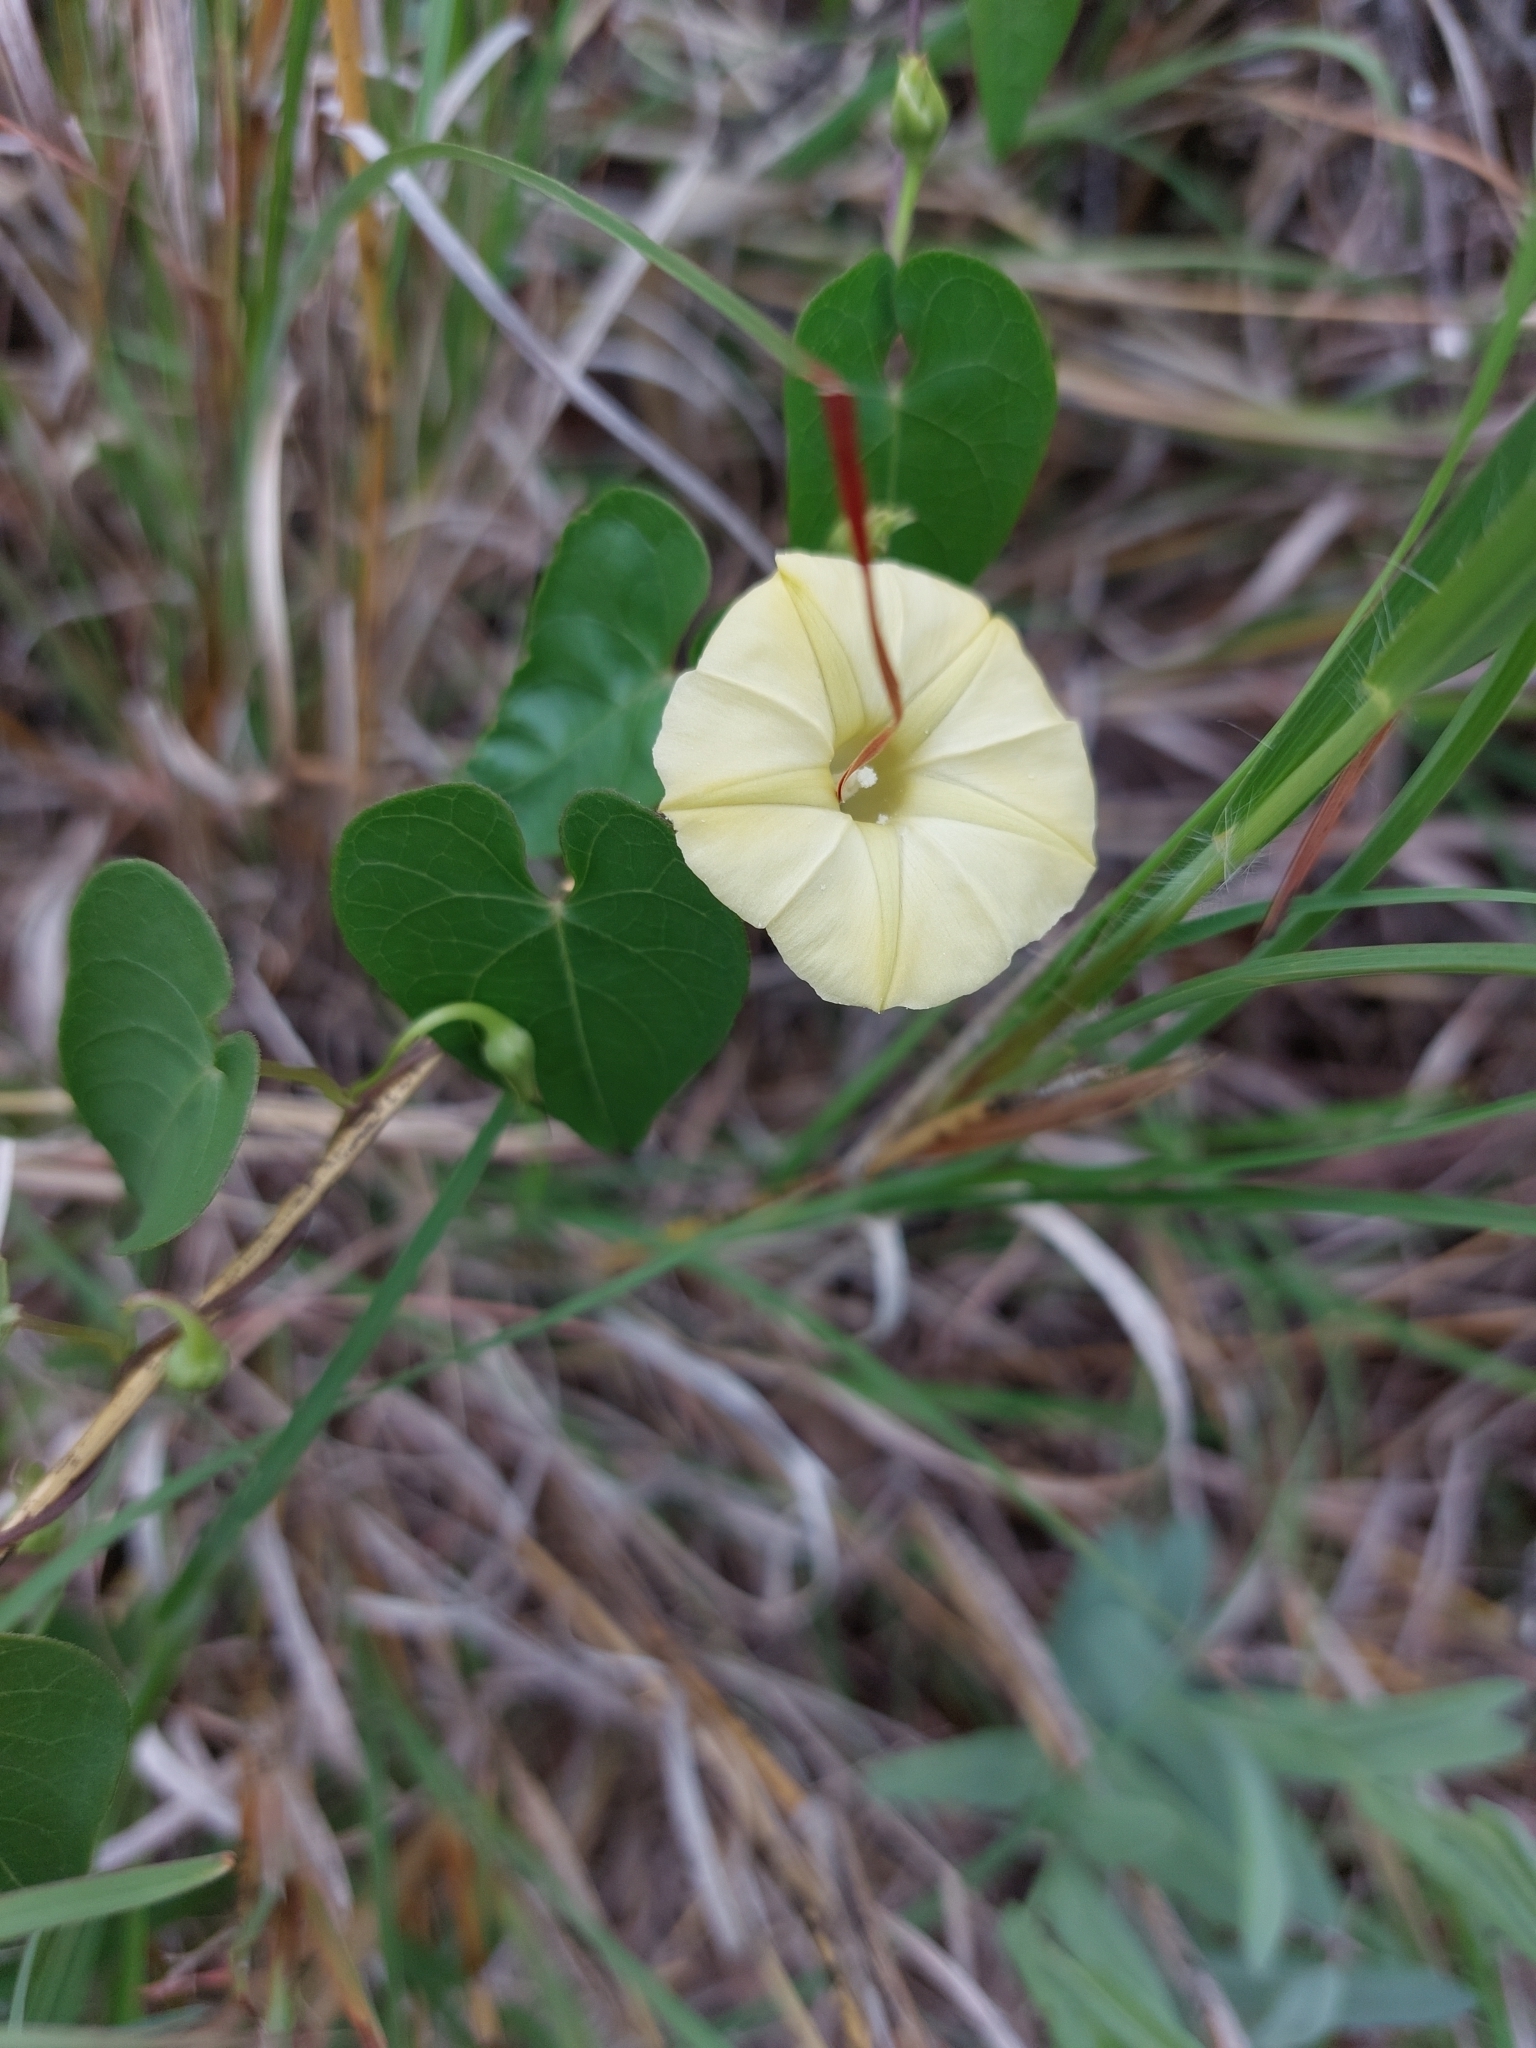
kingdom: Plantae
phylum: Tracheophyta
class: Magnoliopsida
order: Solanales
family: Convolvulaceae
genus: Ipomoea
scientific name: Ipomoea obscura
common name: Obscure morning-glory
